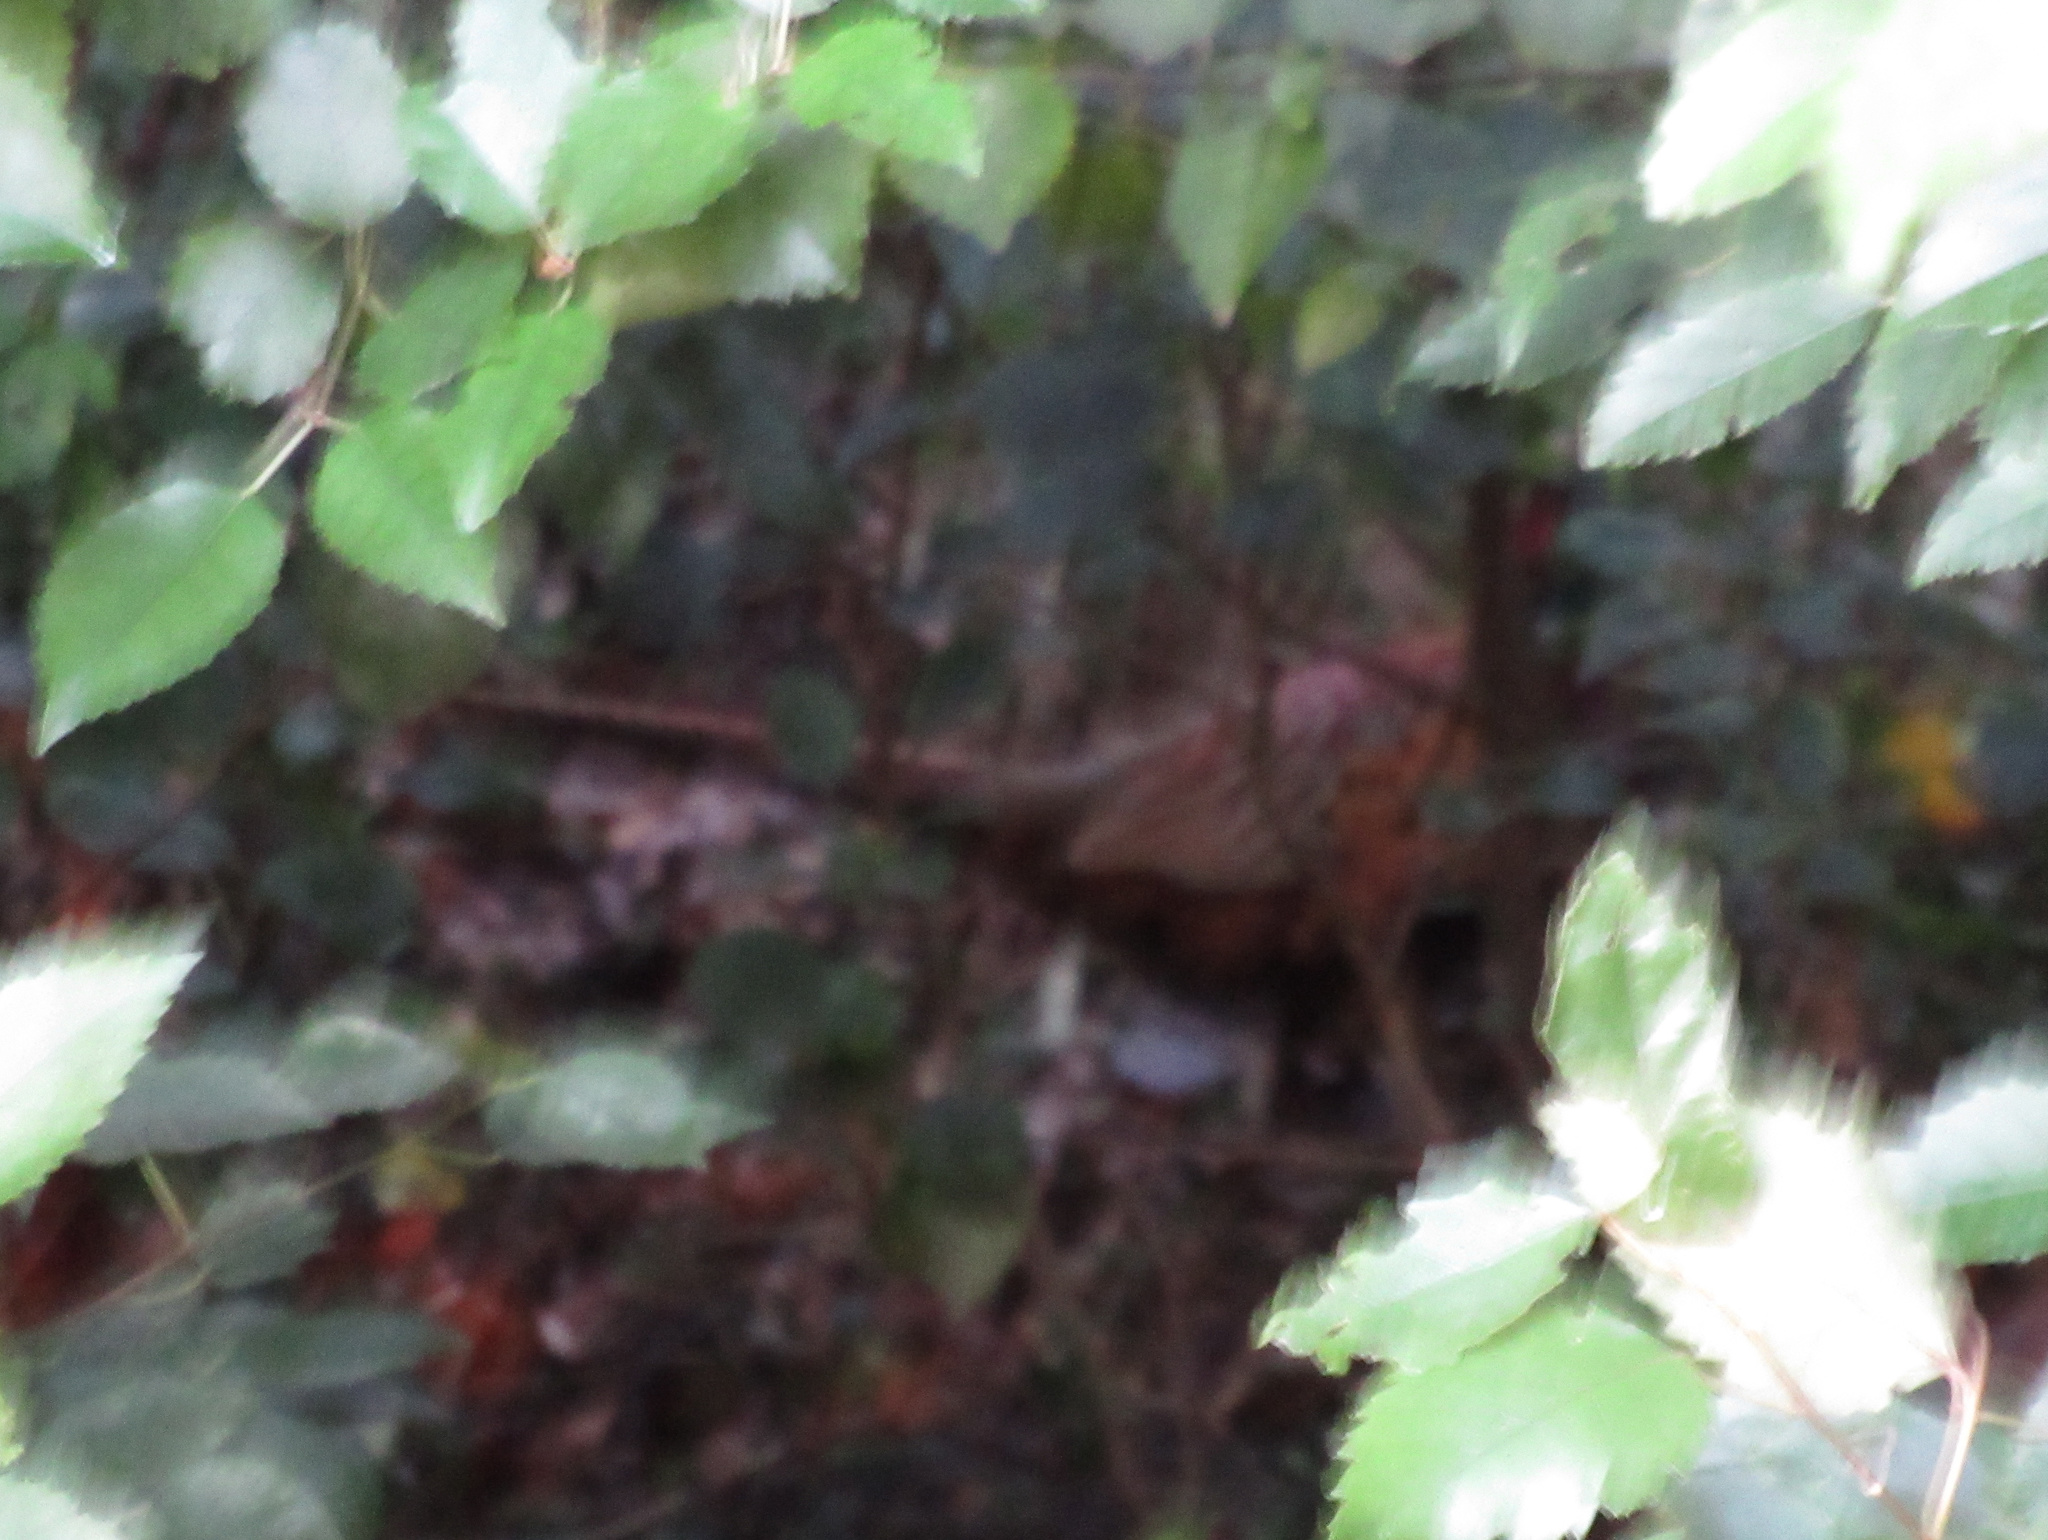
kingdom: Animalia
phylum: Chordata
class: Aves
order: Galliformes
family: Phasianidae
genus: Phasianus
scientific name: Phasianus colchicus
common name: Common pheasant
